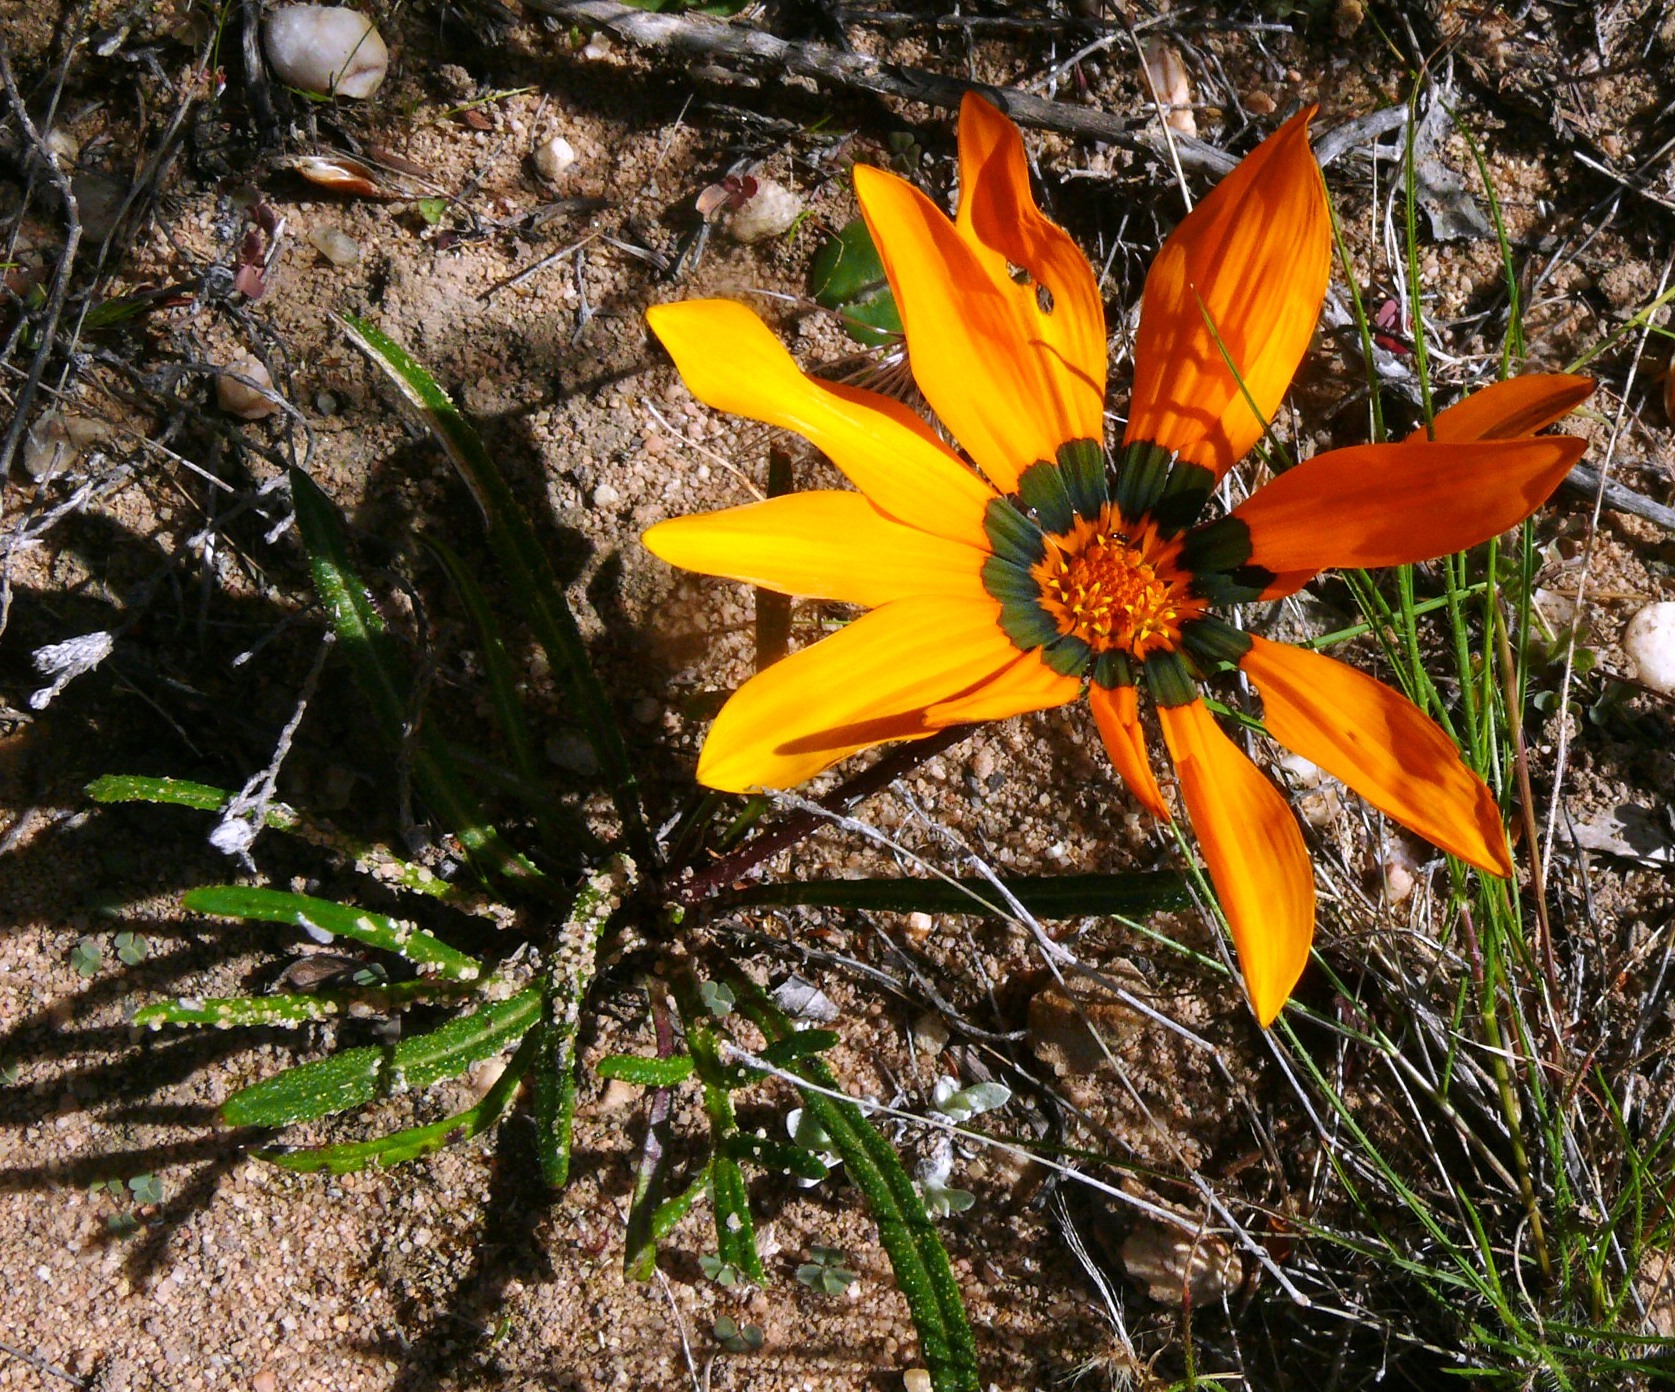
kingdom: Plantae
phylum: Tracheophyta
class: Magnoliopsida
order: Asterales
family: Asteraceae
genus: Gazania
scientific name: Gazania serrata
